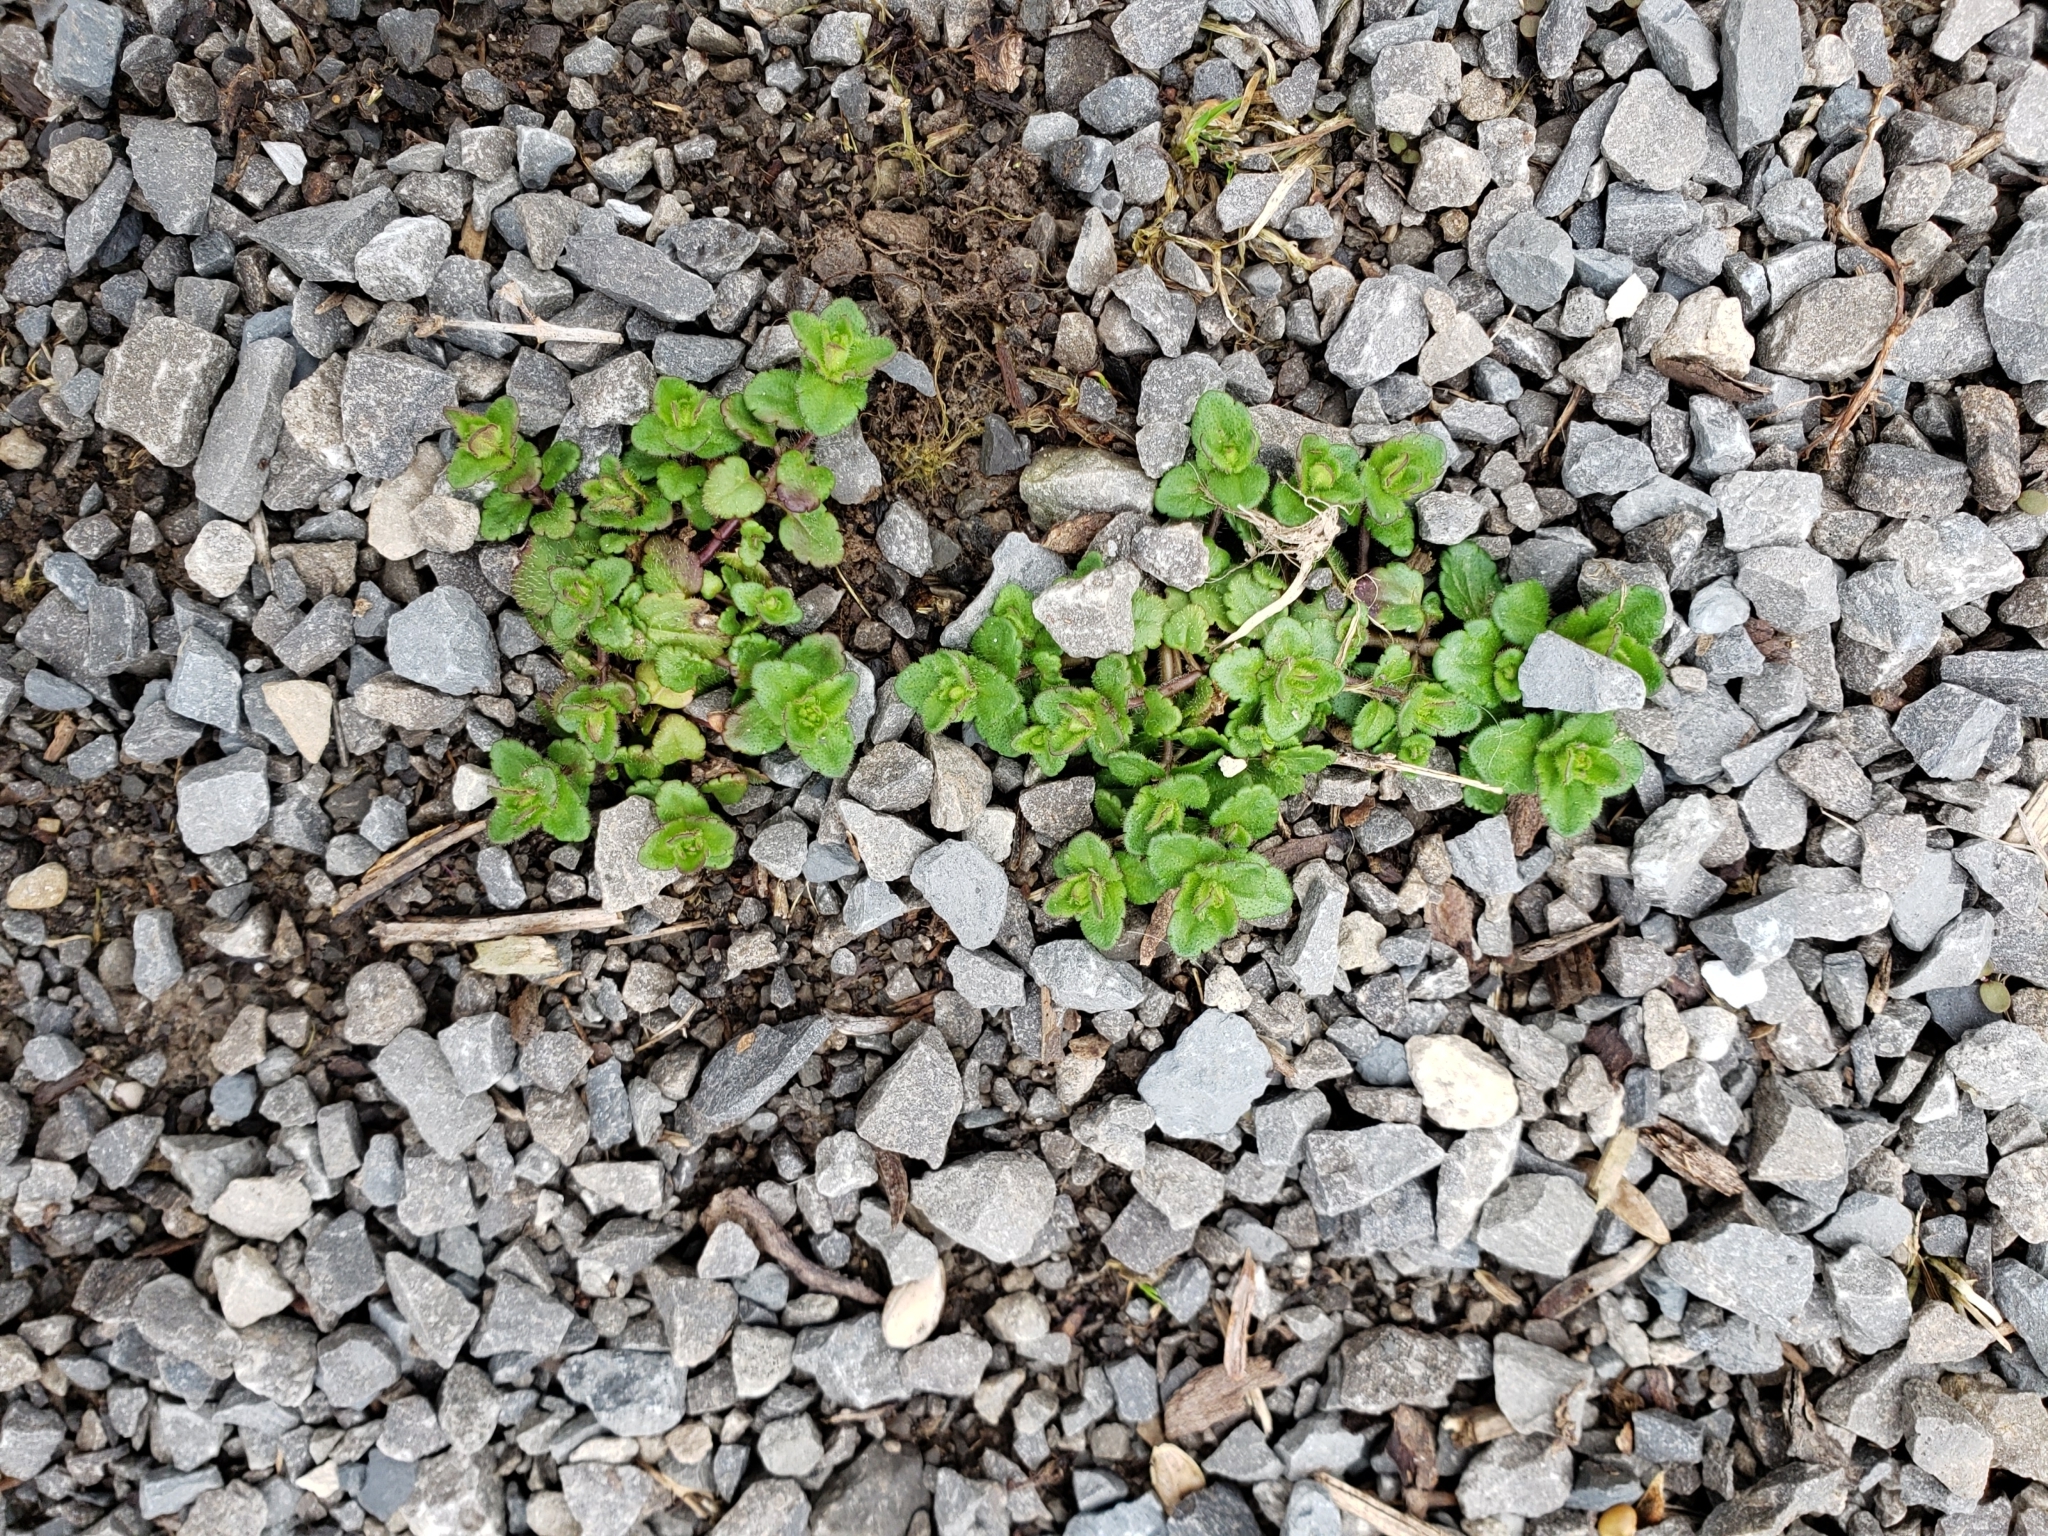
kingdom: Plantae
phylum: Tracheophyta
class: Magnoliopsida
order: Lamiales
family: Plantaginaceae
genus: Veronica
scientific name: Veronica arvensis
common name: Corn speedwell
